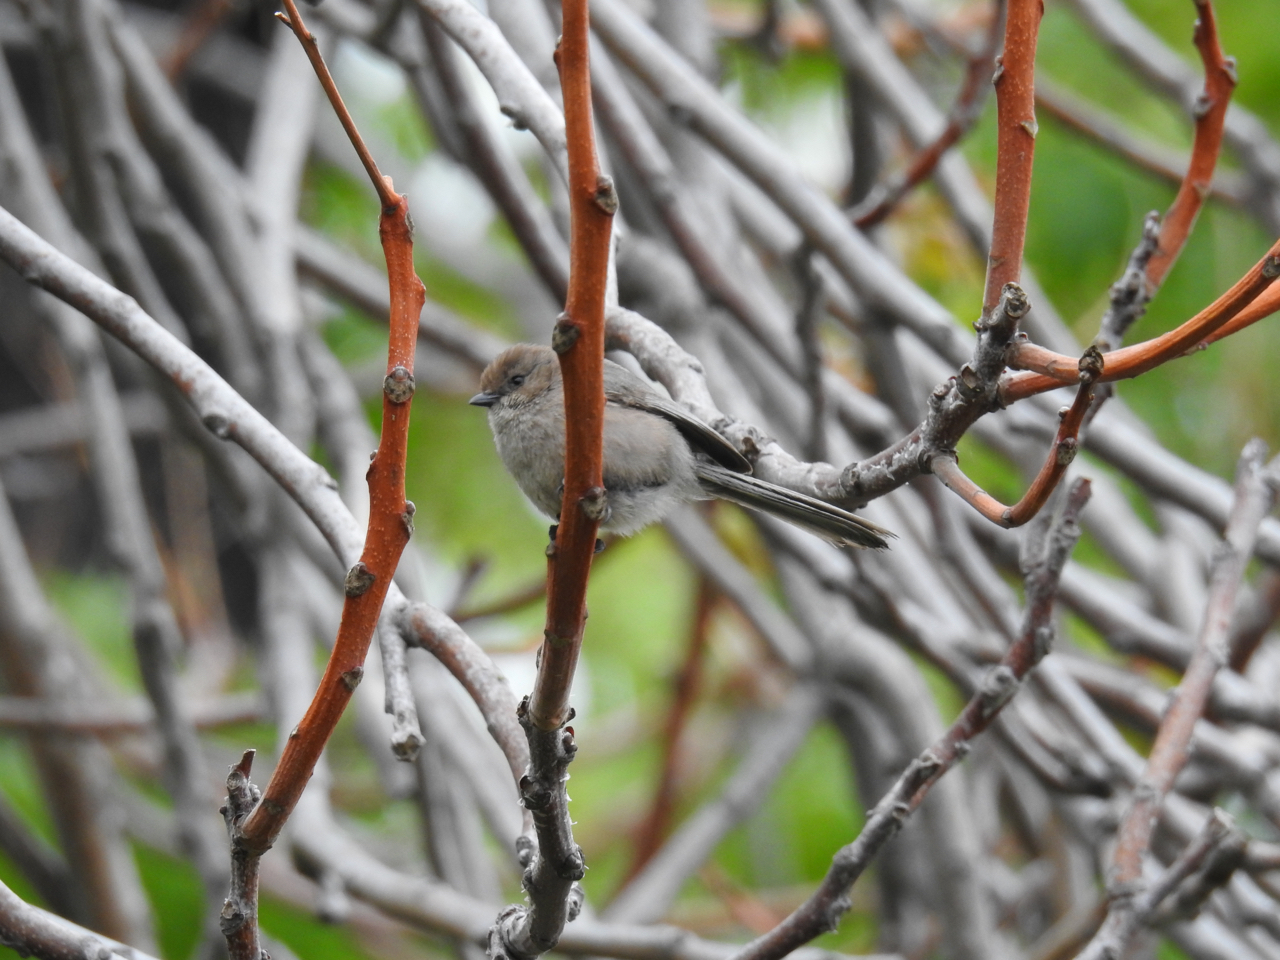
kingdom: Animalia
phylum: Chordata
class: Aves
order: Passeriformes
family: Aegithalidae
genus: Psaltriparus
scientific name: Psaltriparus minimus
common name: American bushtit
